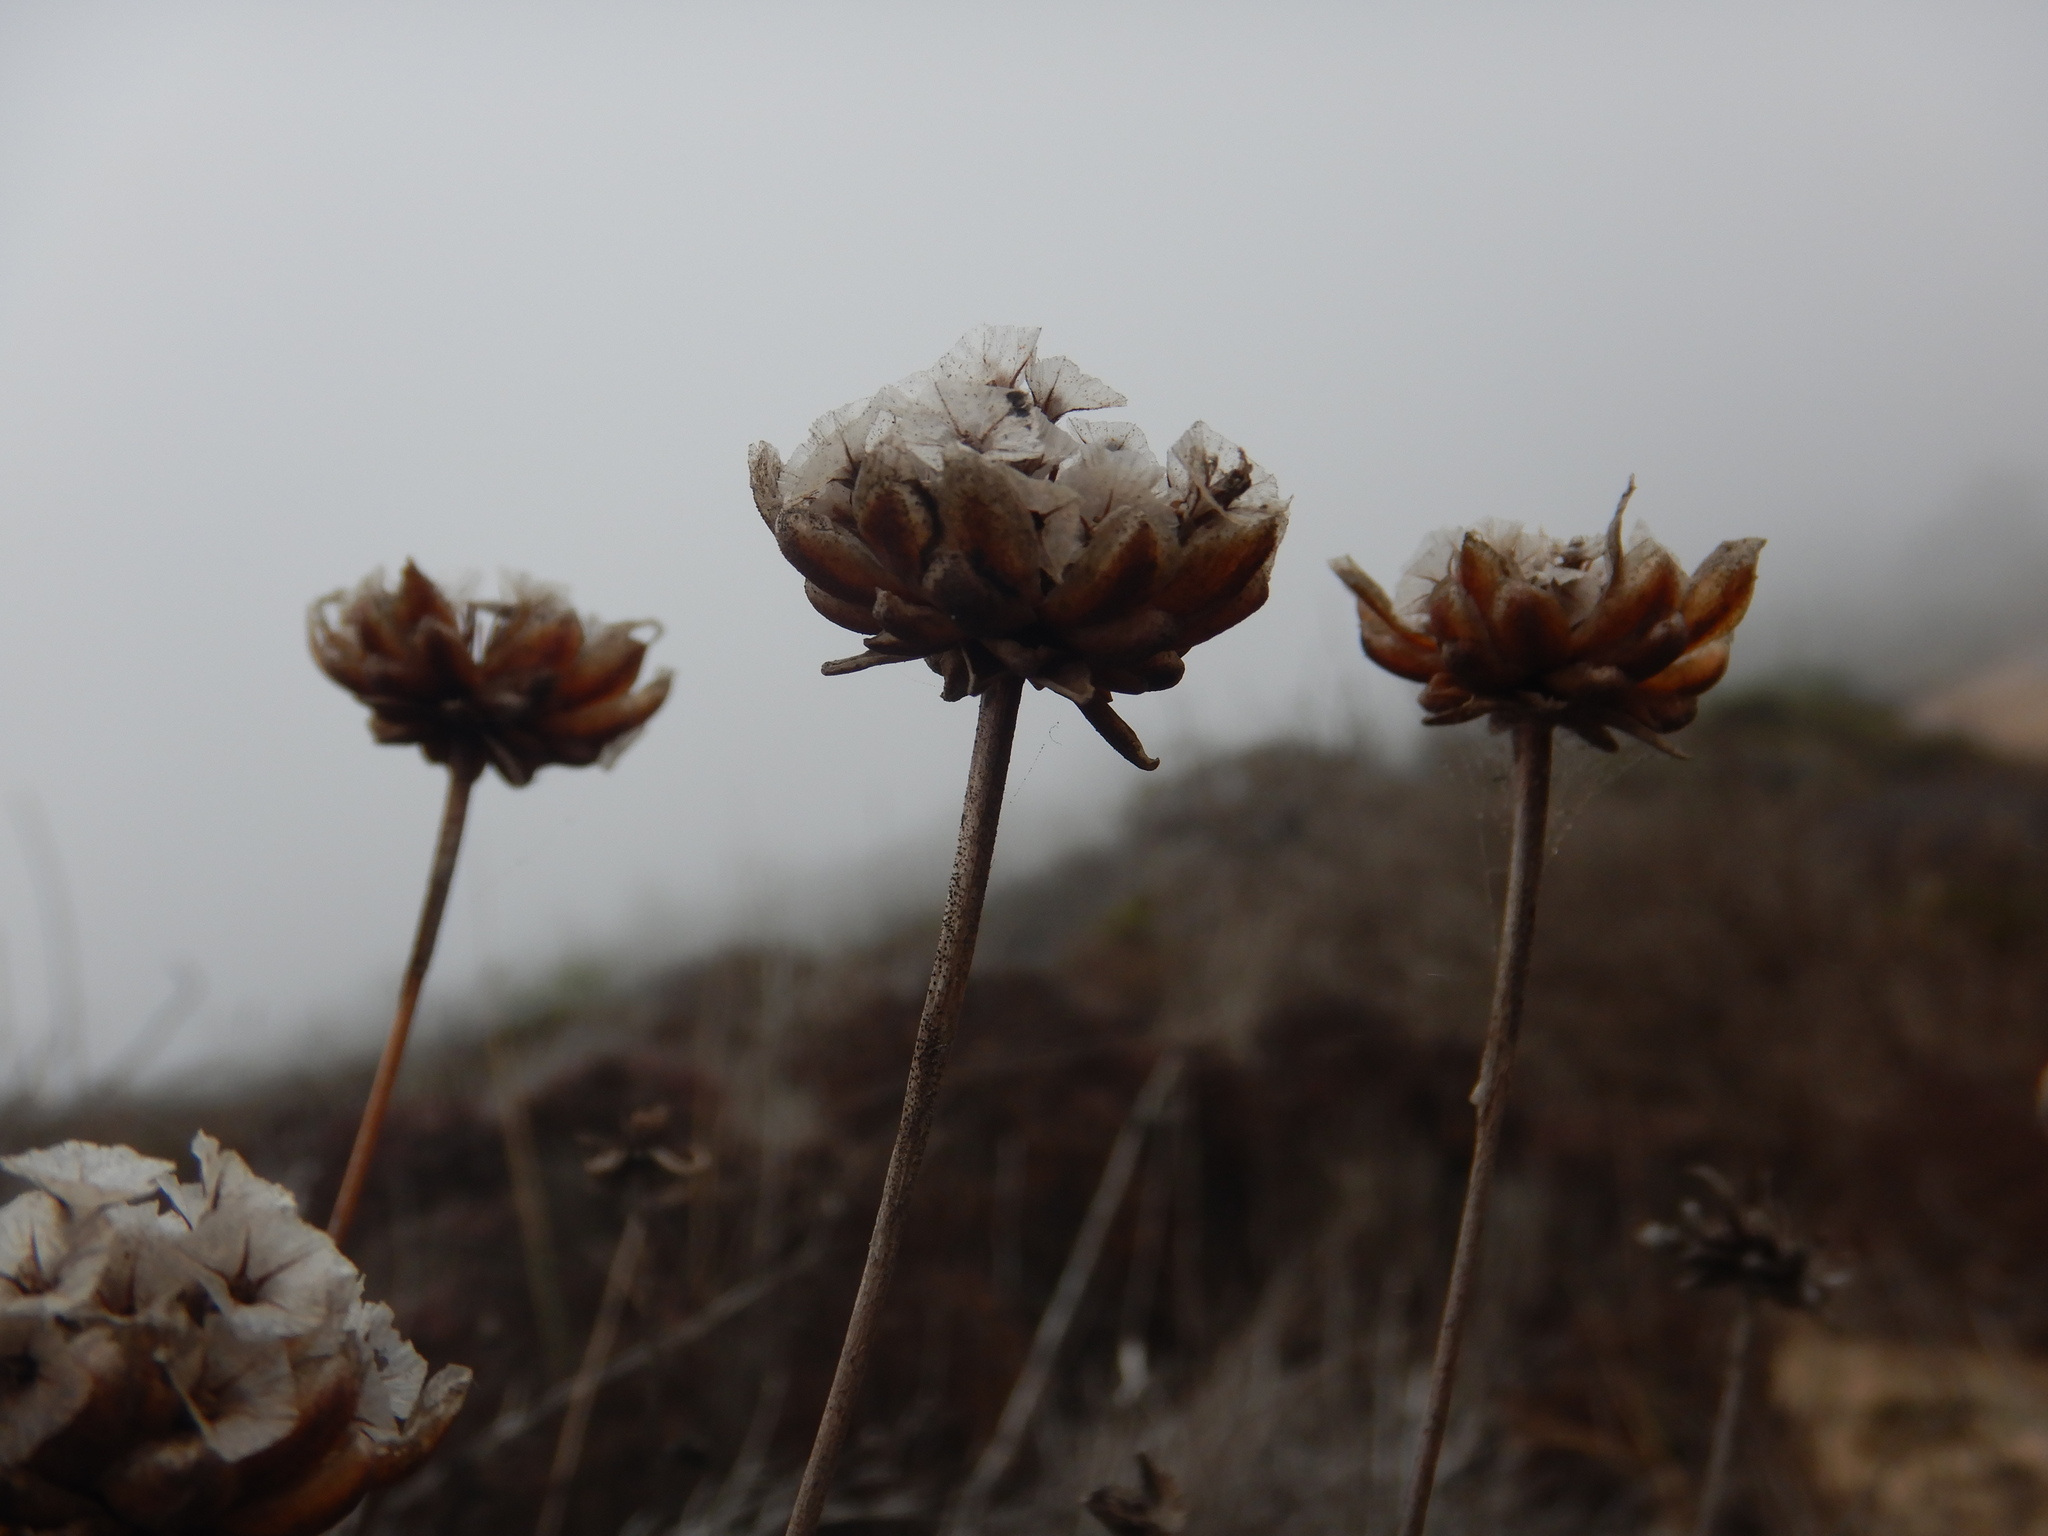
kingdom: Plantae
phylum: Tracheophyta
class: Magnoliopsida
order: Caryophyllales
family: Plumbaginaceae
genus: Armeria
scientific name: Armeria pungens
